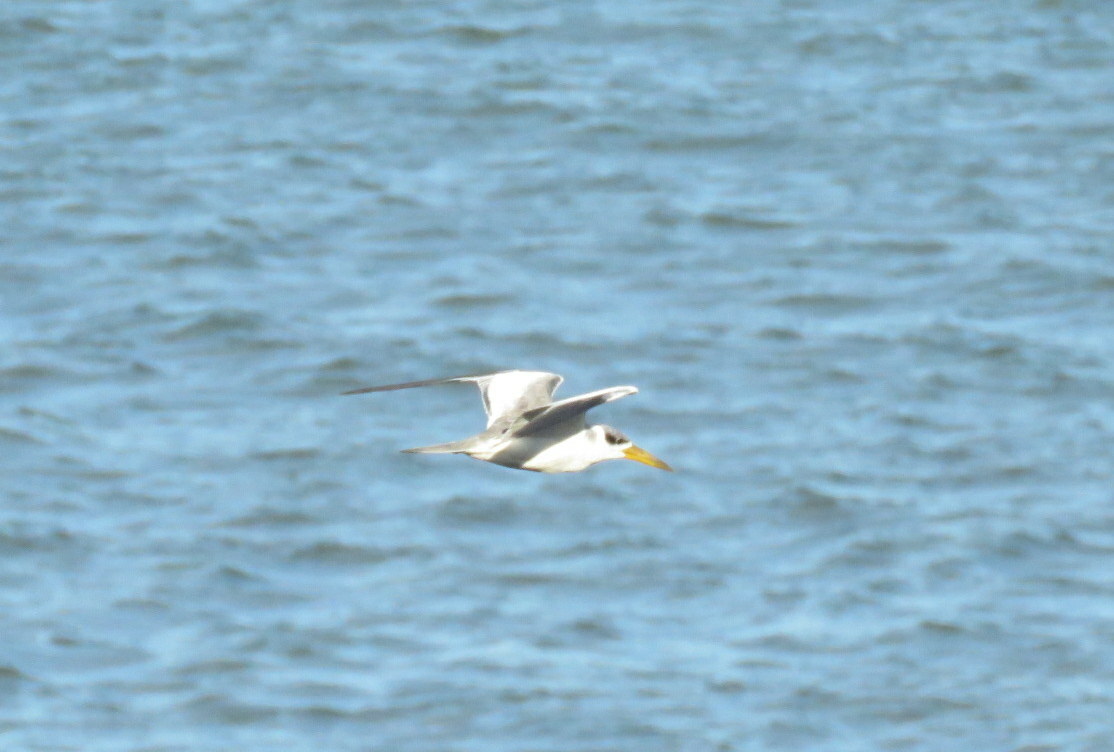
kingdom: Animalia
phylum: Chordata
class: Aves
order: Charadriiformes
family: Laridae
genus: Phaetusa
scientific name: Phaetusa simplex
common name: Large-billed tern
